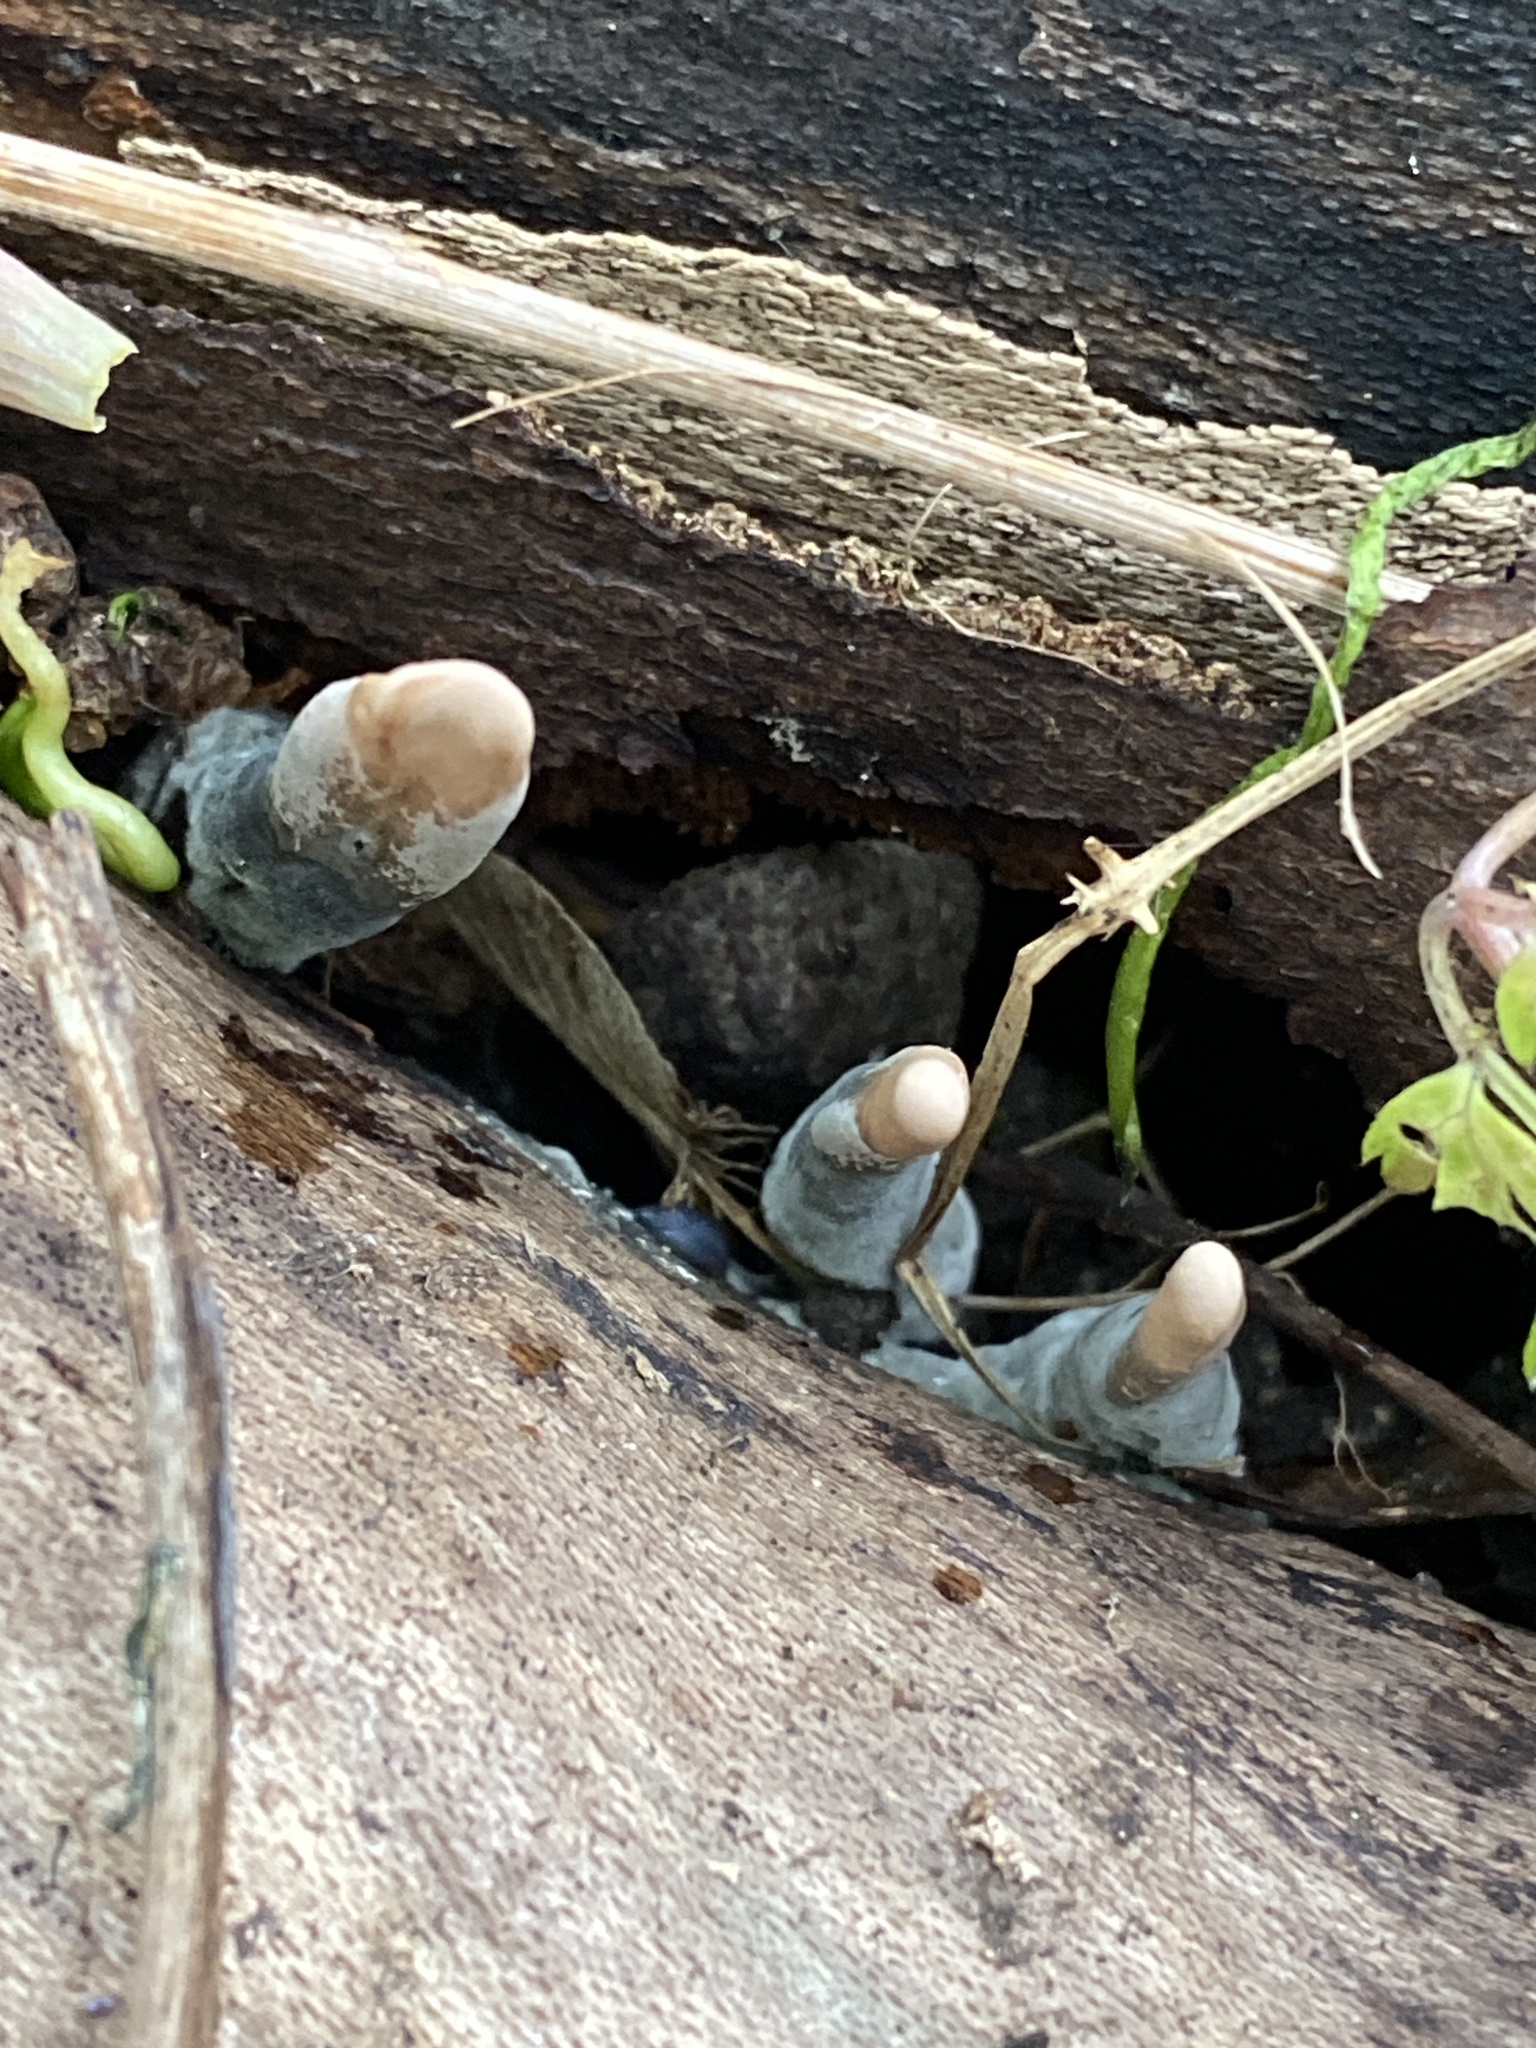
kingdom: Fungi
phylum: Ascomycota
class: Sordariomycetes
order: Xylariales
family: Xylariaceae
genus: Xylaria
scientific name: Xylaria polymorpha
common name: Dead man's fingers
